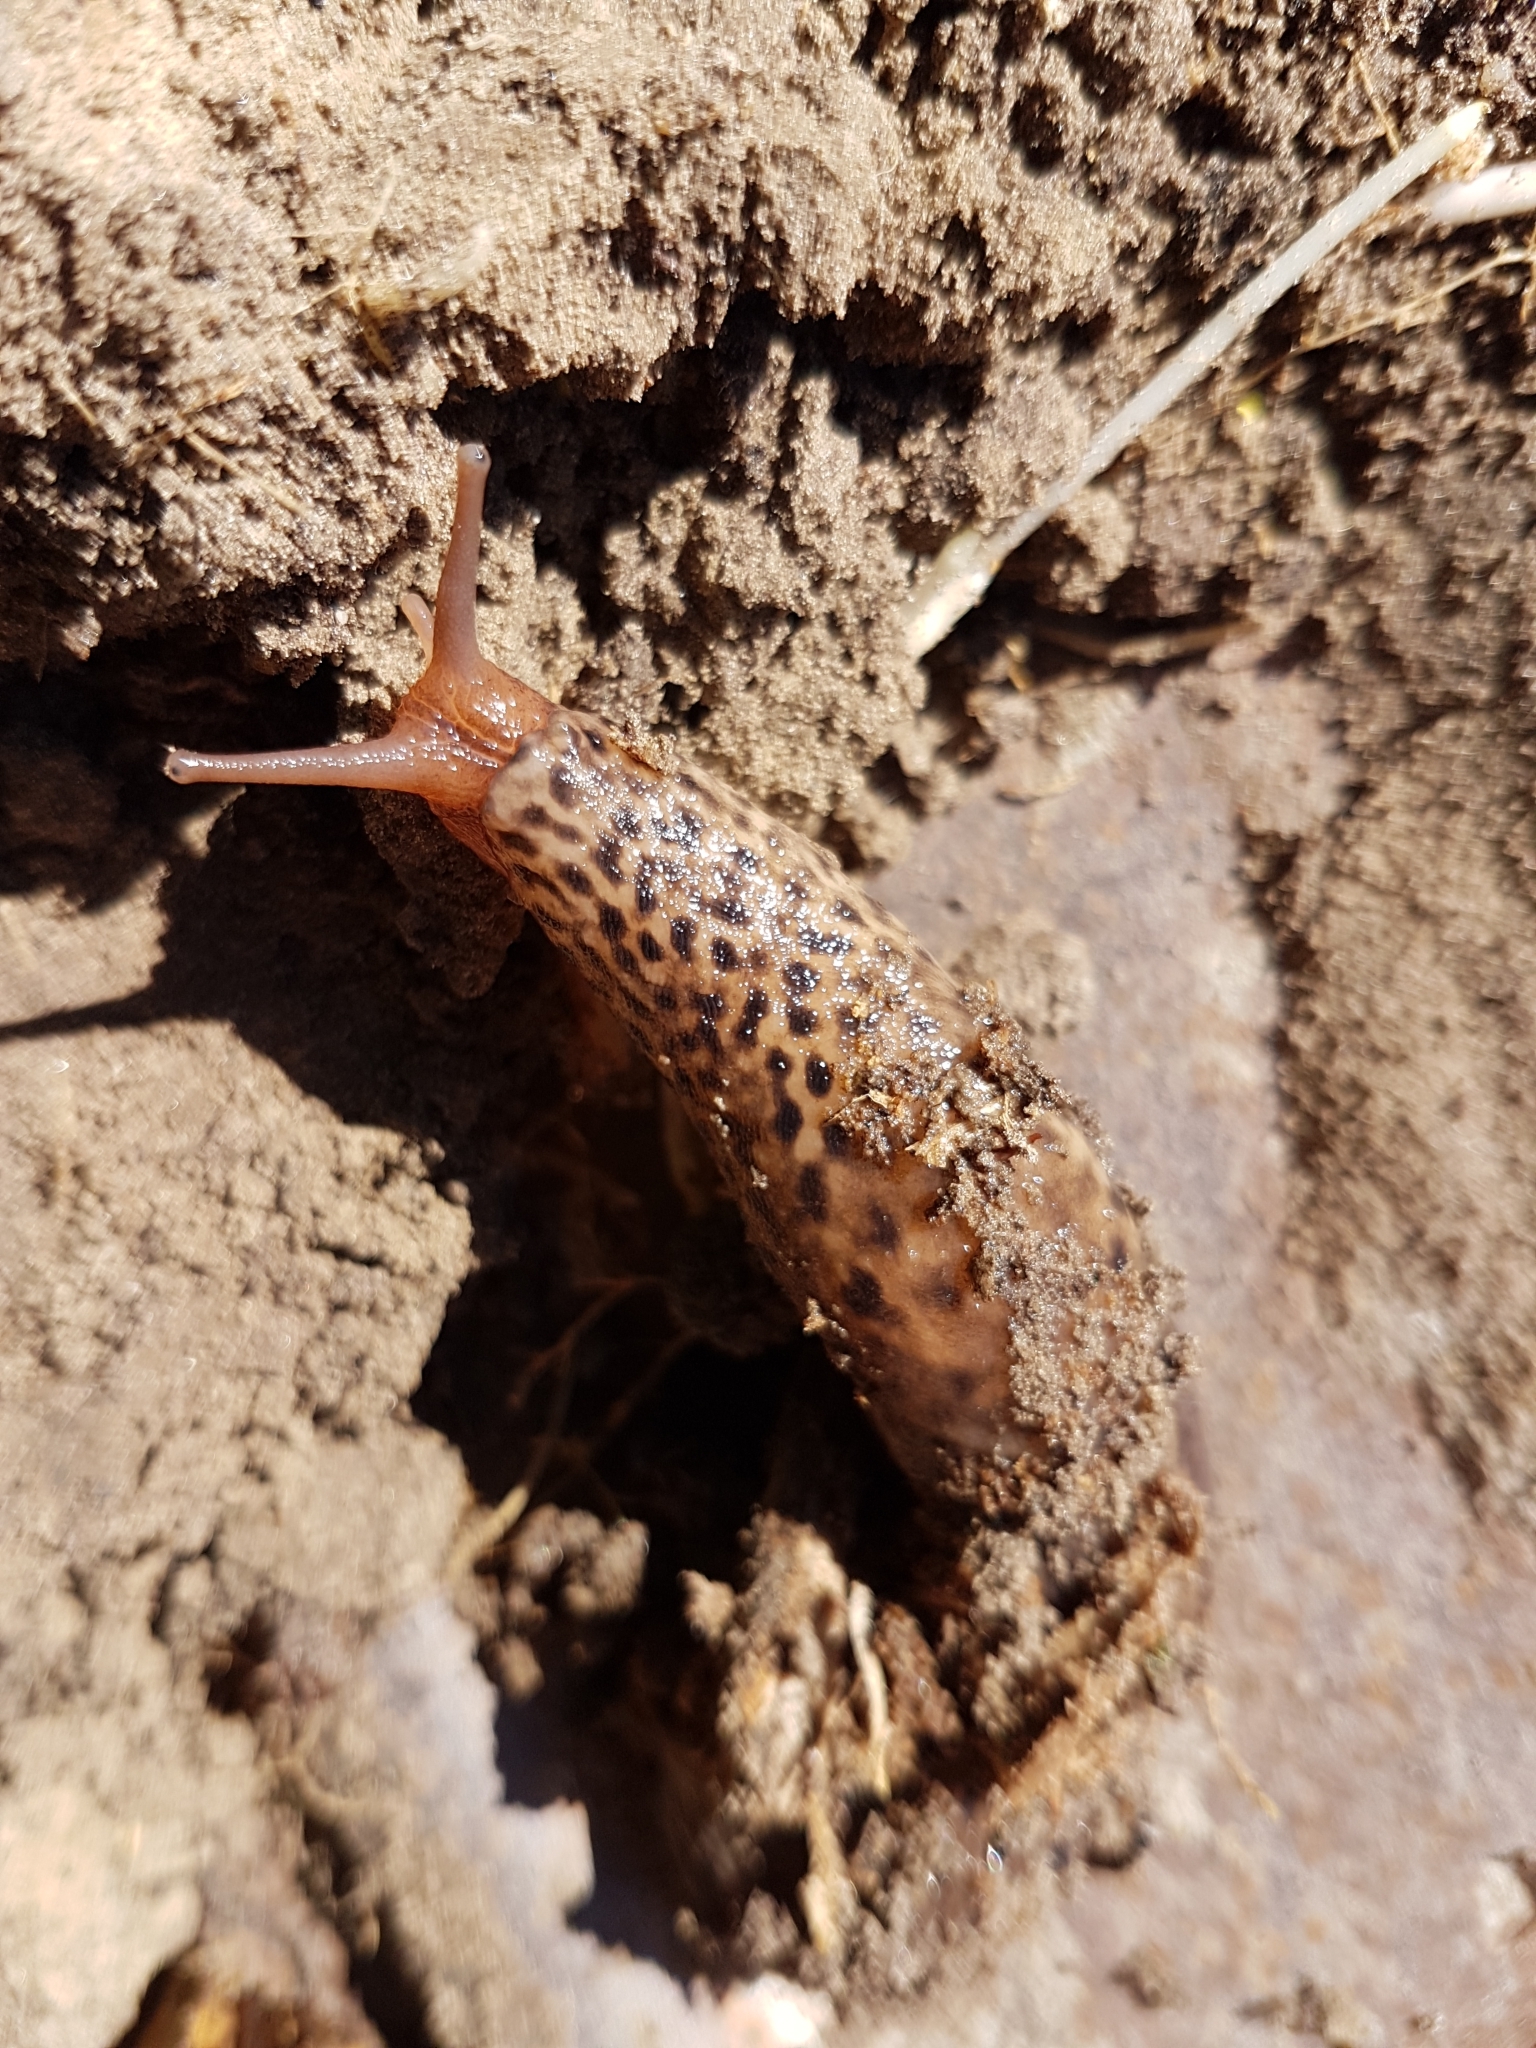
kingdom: Animalia
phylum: Mollusca
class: Gastropoda
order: Stylommatophora
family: Limacidae
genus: Limax
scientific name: Limax maximus
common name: Great grey slug
